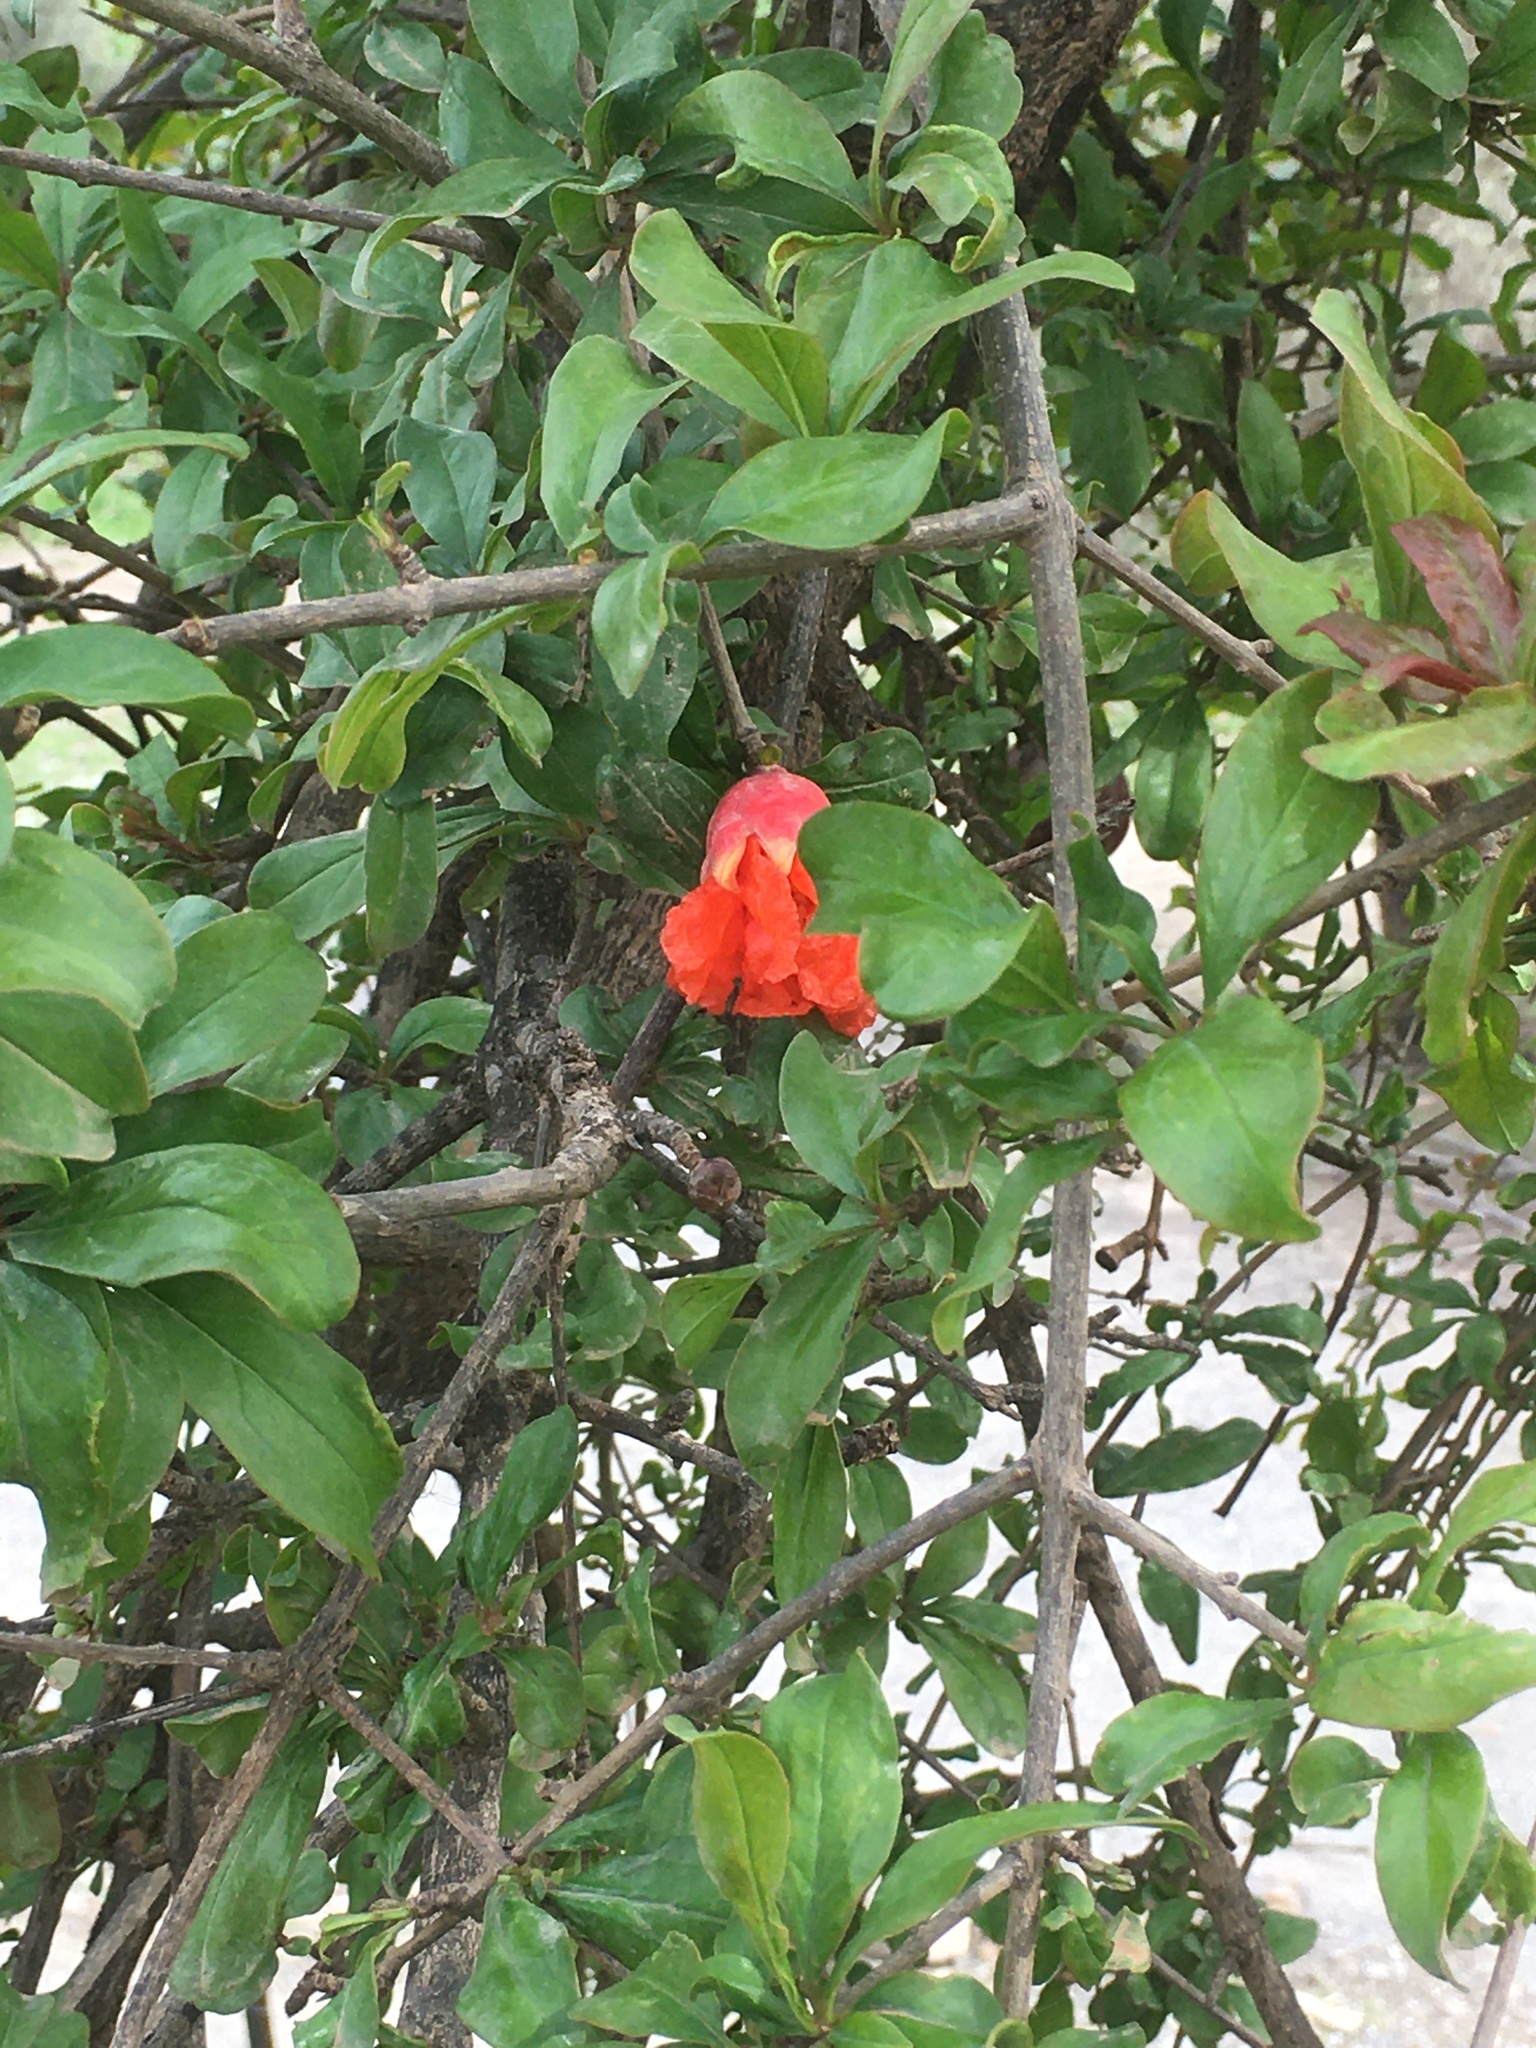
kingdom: Plantae
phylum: Tracheophyta
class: Magnoliopsida
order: Myrtales
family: Lythraceae
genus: Punica
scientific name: Punica granatum
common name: Pomegranate
